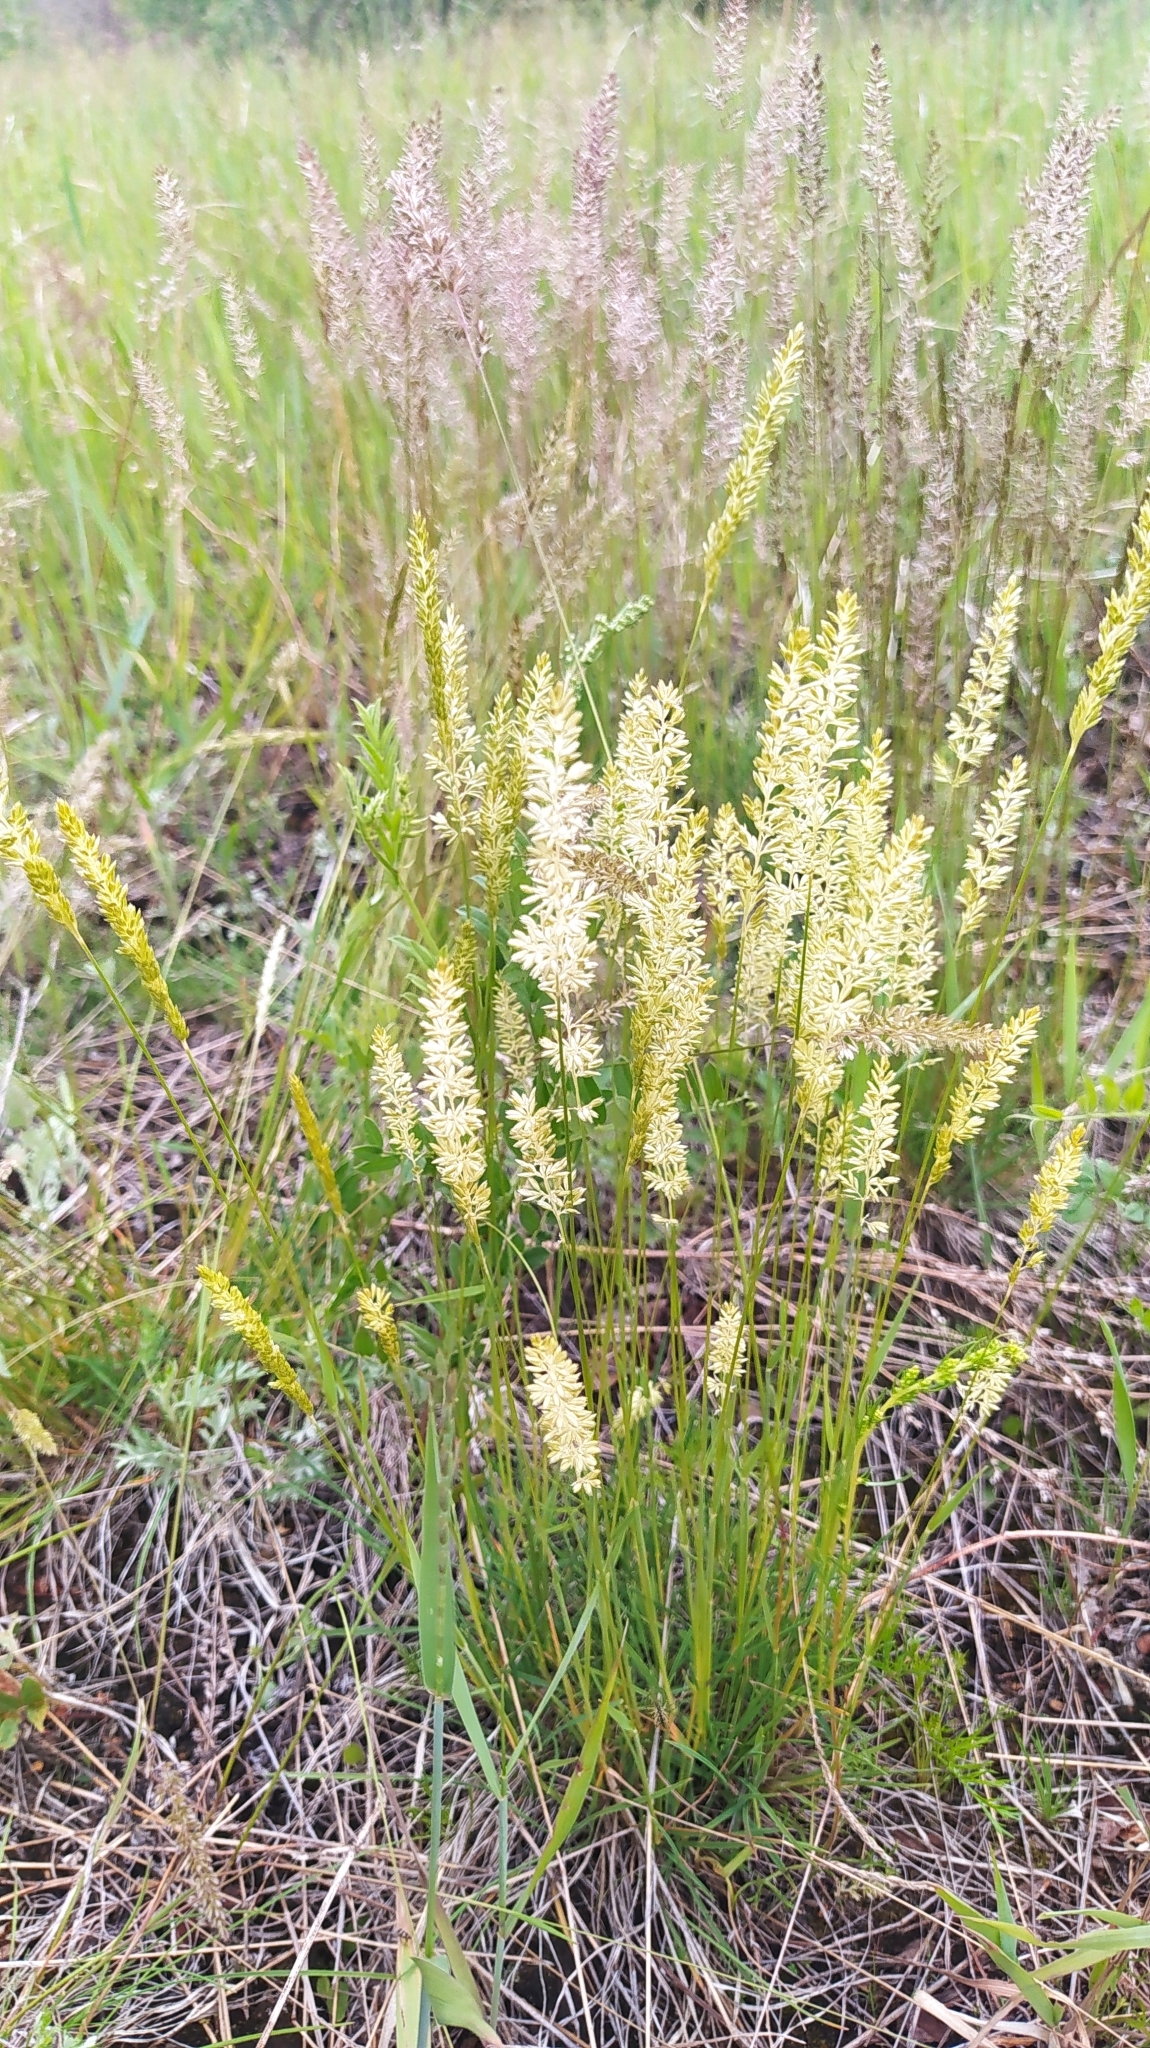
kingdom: Plantae
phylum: Tracheophyta
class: Liliopsida
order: Poales
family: Poaceae
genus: Koeleria
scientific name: Koeleria macrantha
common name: Crested hair-grass
